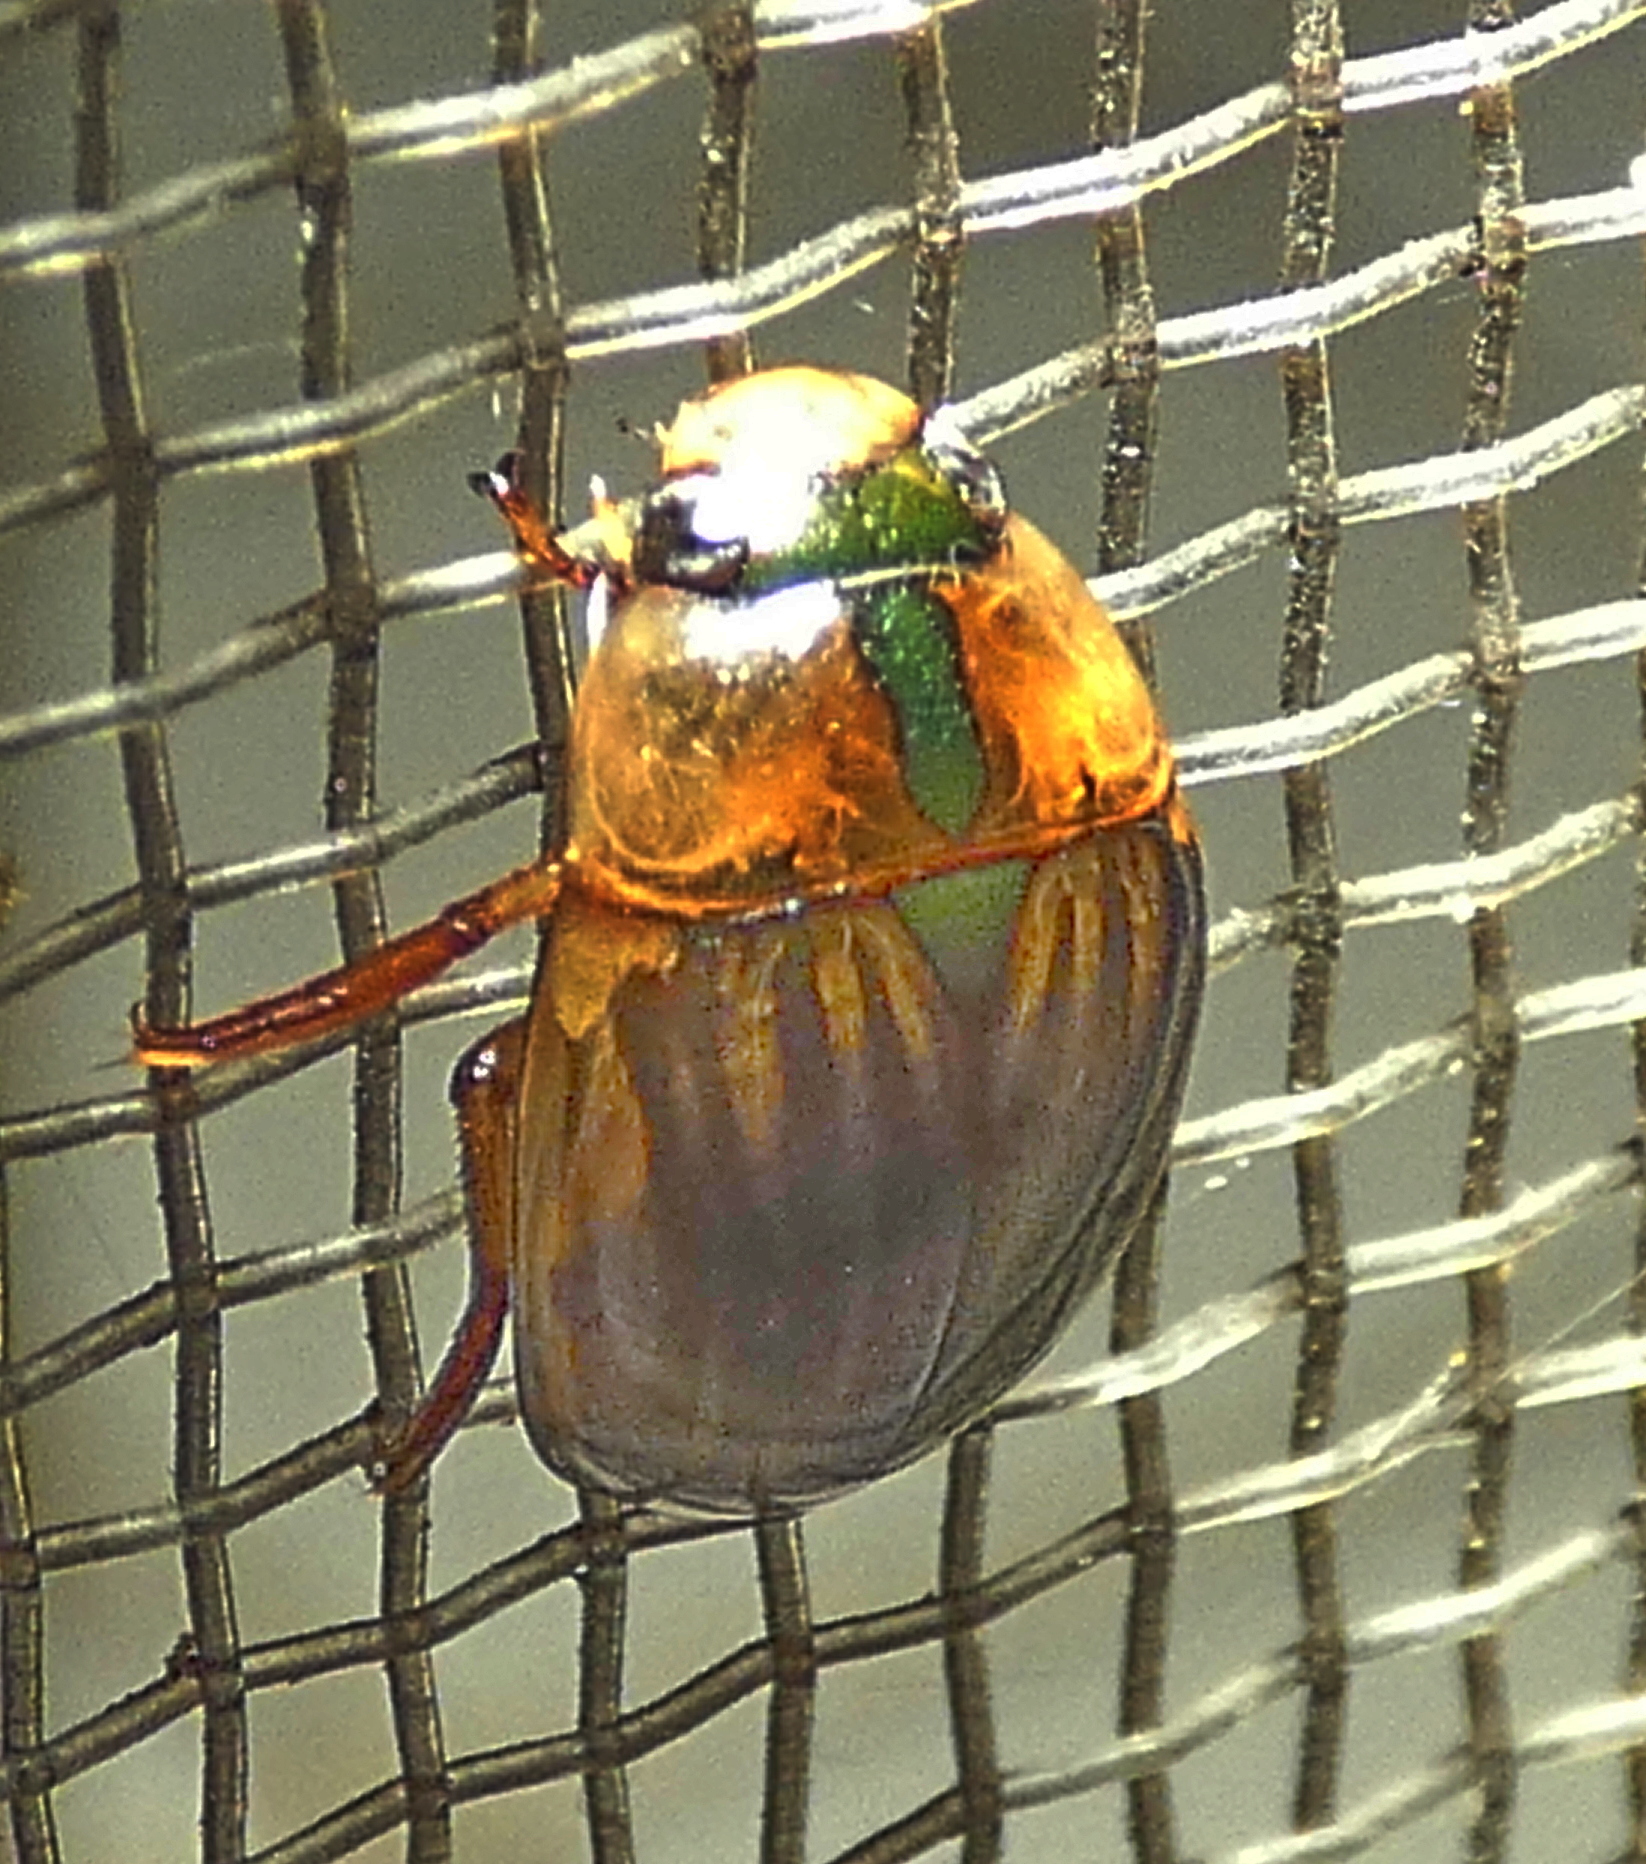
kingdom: Animalia
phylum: Arthropoda
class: Insecta
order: Coleoptera
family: Hydrophilidae
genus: Tropisternus
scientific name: Tropisternus collaris
